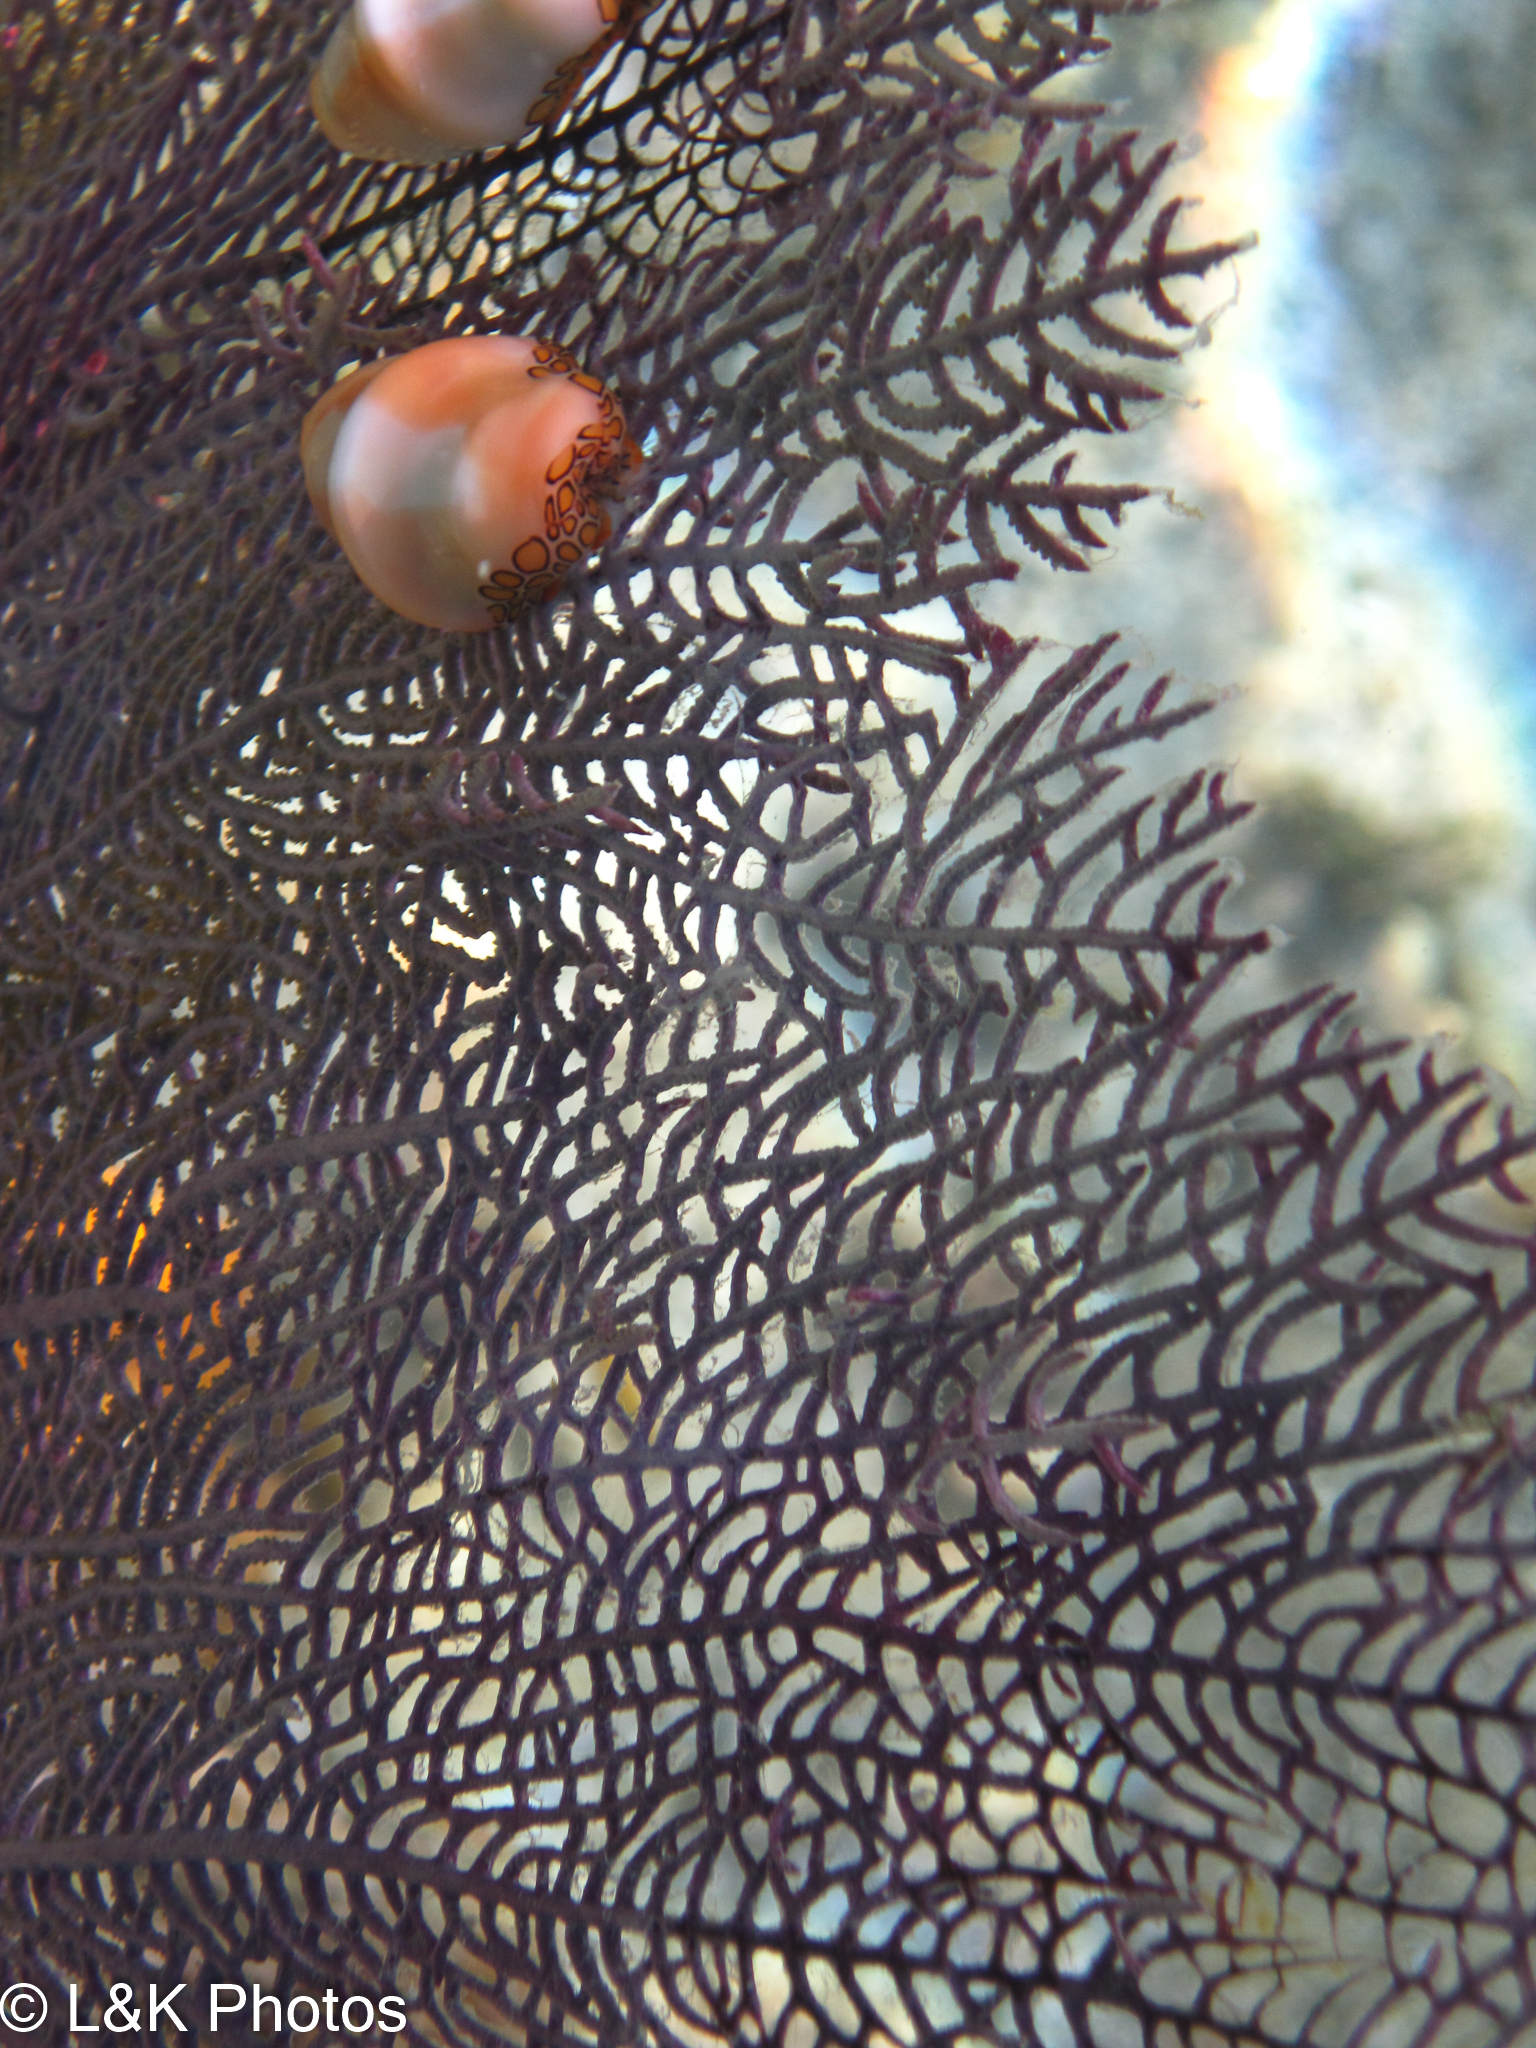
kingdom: Animalia
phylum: Mollusca
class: Gastropoda
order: Littorinimorpha
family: Ovulidae
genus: Cyphoma
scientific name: Cyphoma gibbosum
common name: Flamingo tongue
